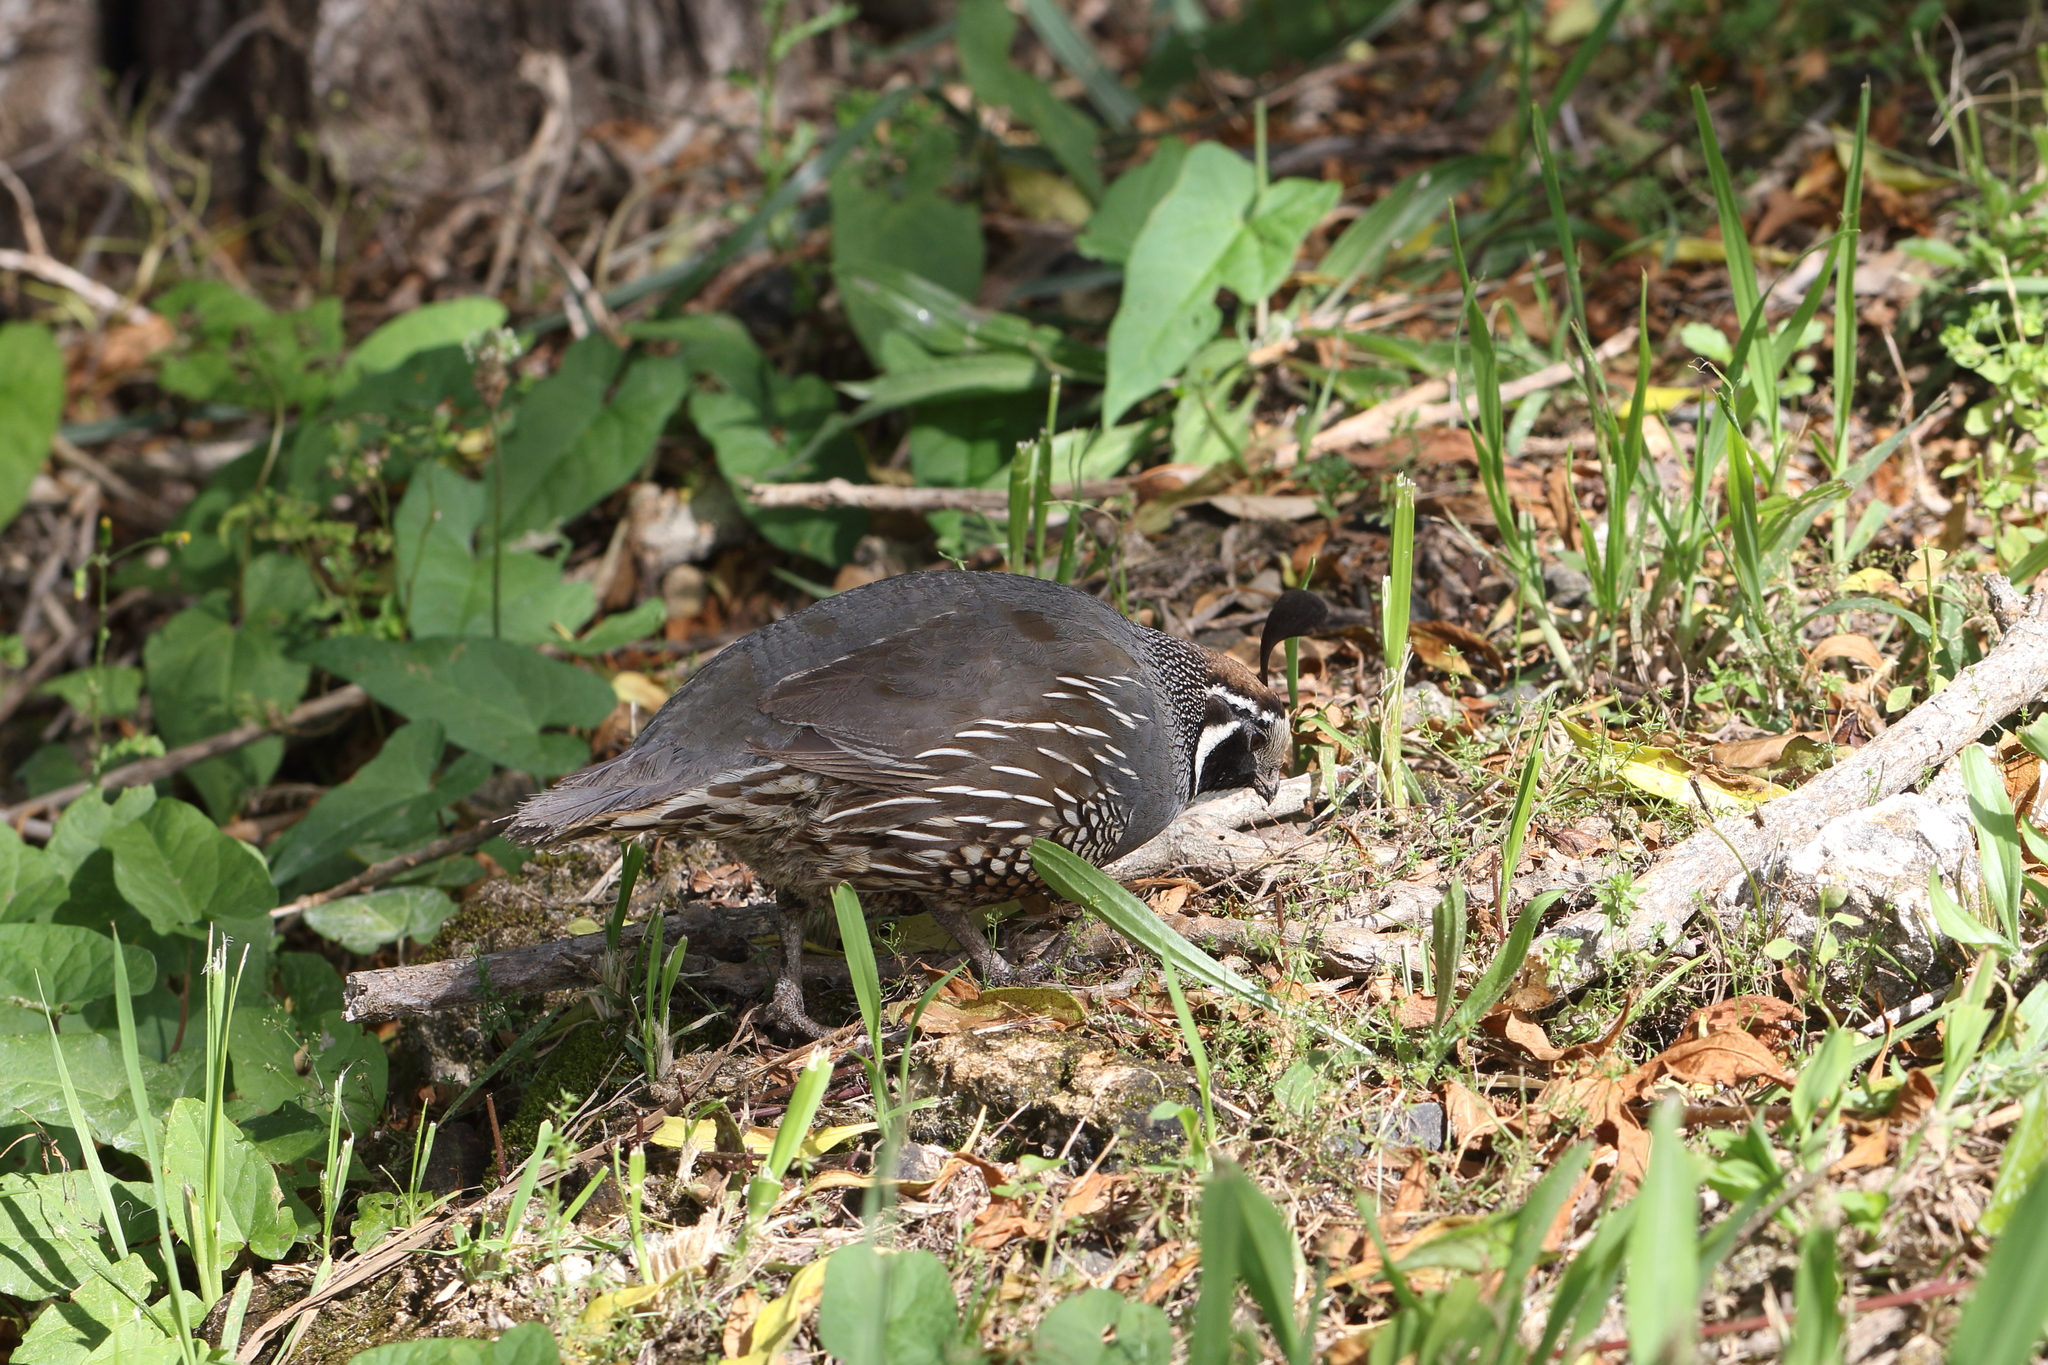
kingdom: Animalia
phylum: Chordata
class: Aves
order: Galliformes
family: Odontophoridae
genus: Callipepla
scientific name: Callipepla californica
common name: California quail
